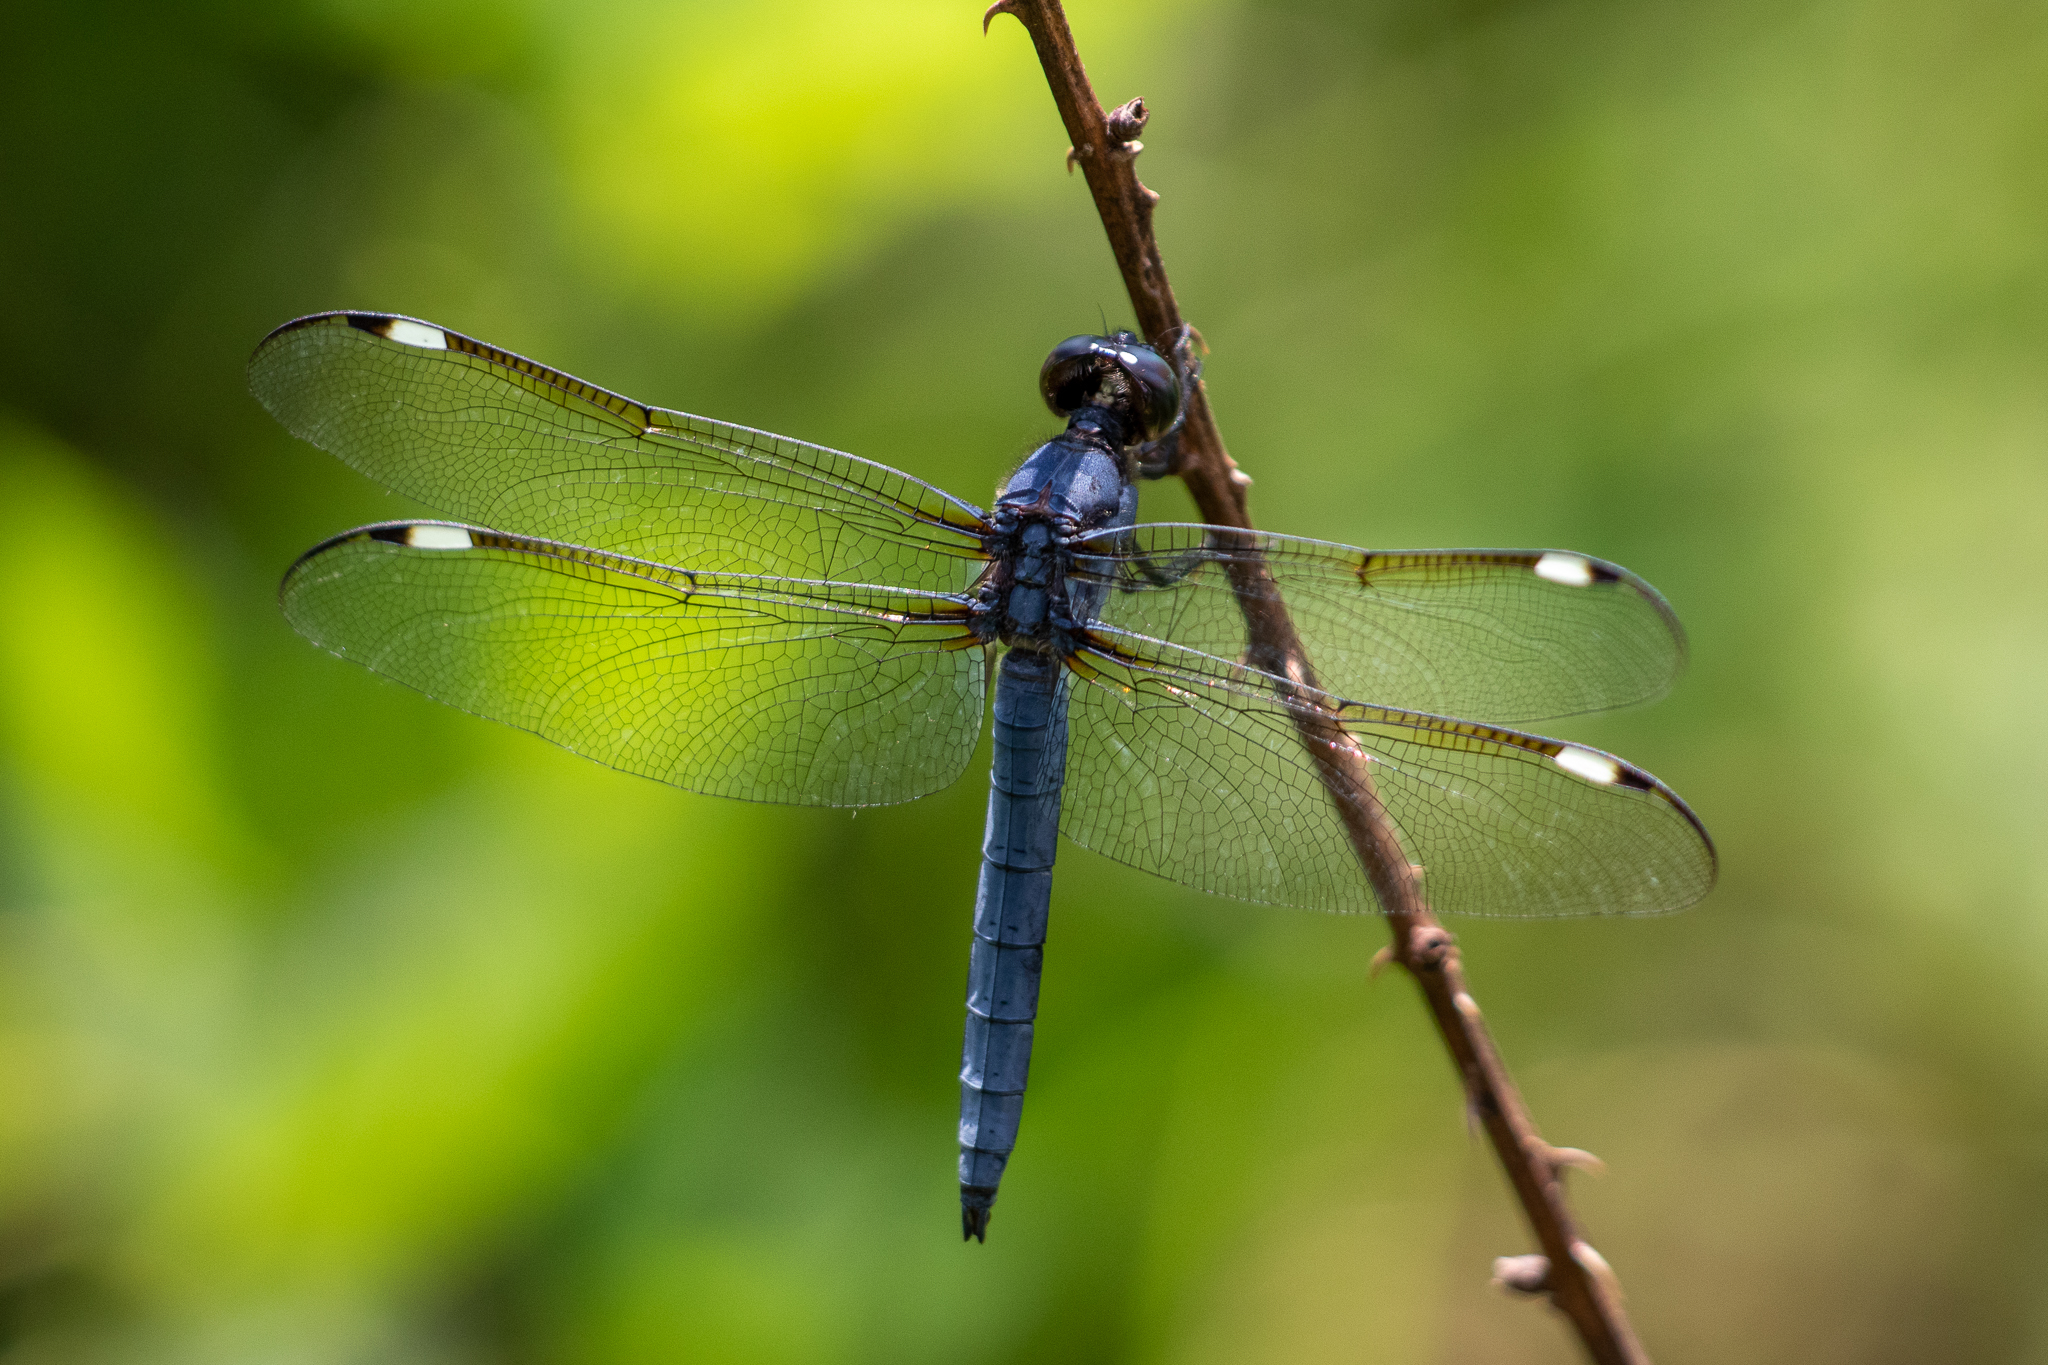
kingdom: Animalia
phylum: Arthropoda
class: Insecta
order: Odonata
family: Libellulidae
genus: Libellula
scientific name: Libellula cyanea
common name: Spangled skimmer
